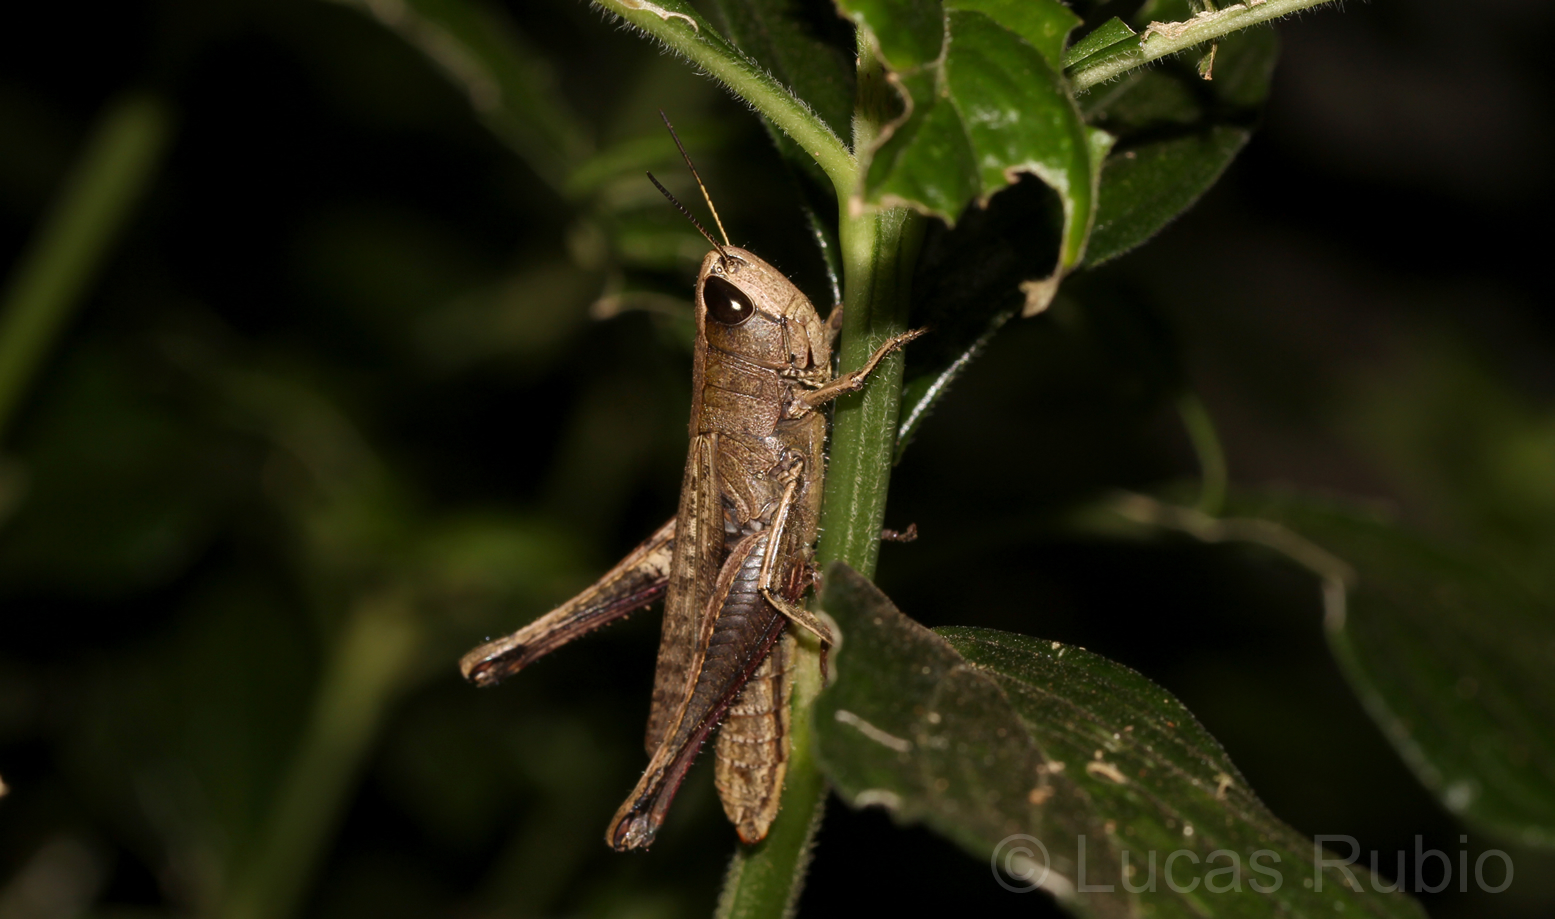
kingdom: Animalia
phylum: Arthropoda
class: Insecta
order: Orthoptera
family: Acrididae
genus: Amblytropidia
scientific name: Amblytropidia robusta
